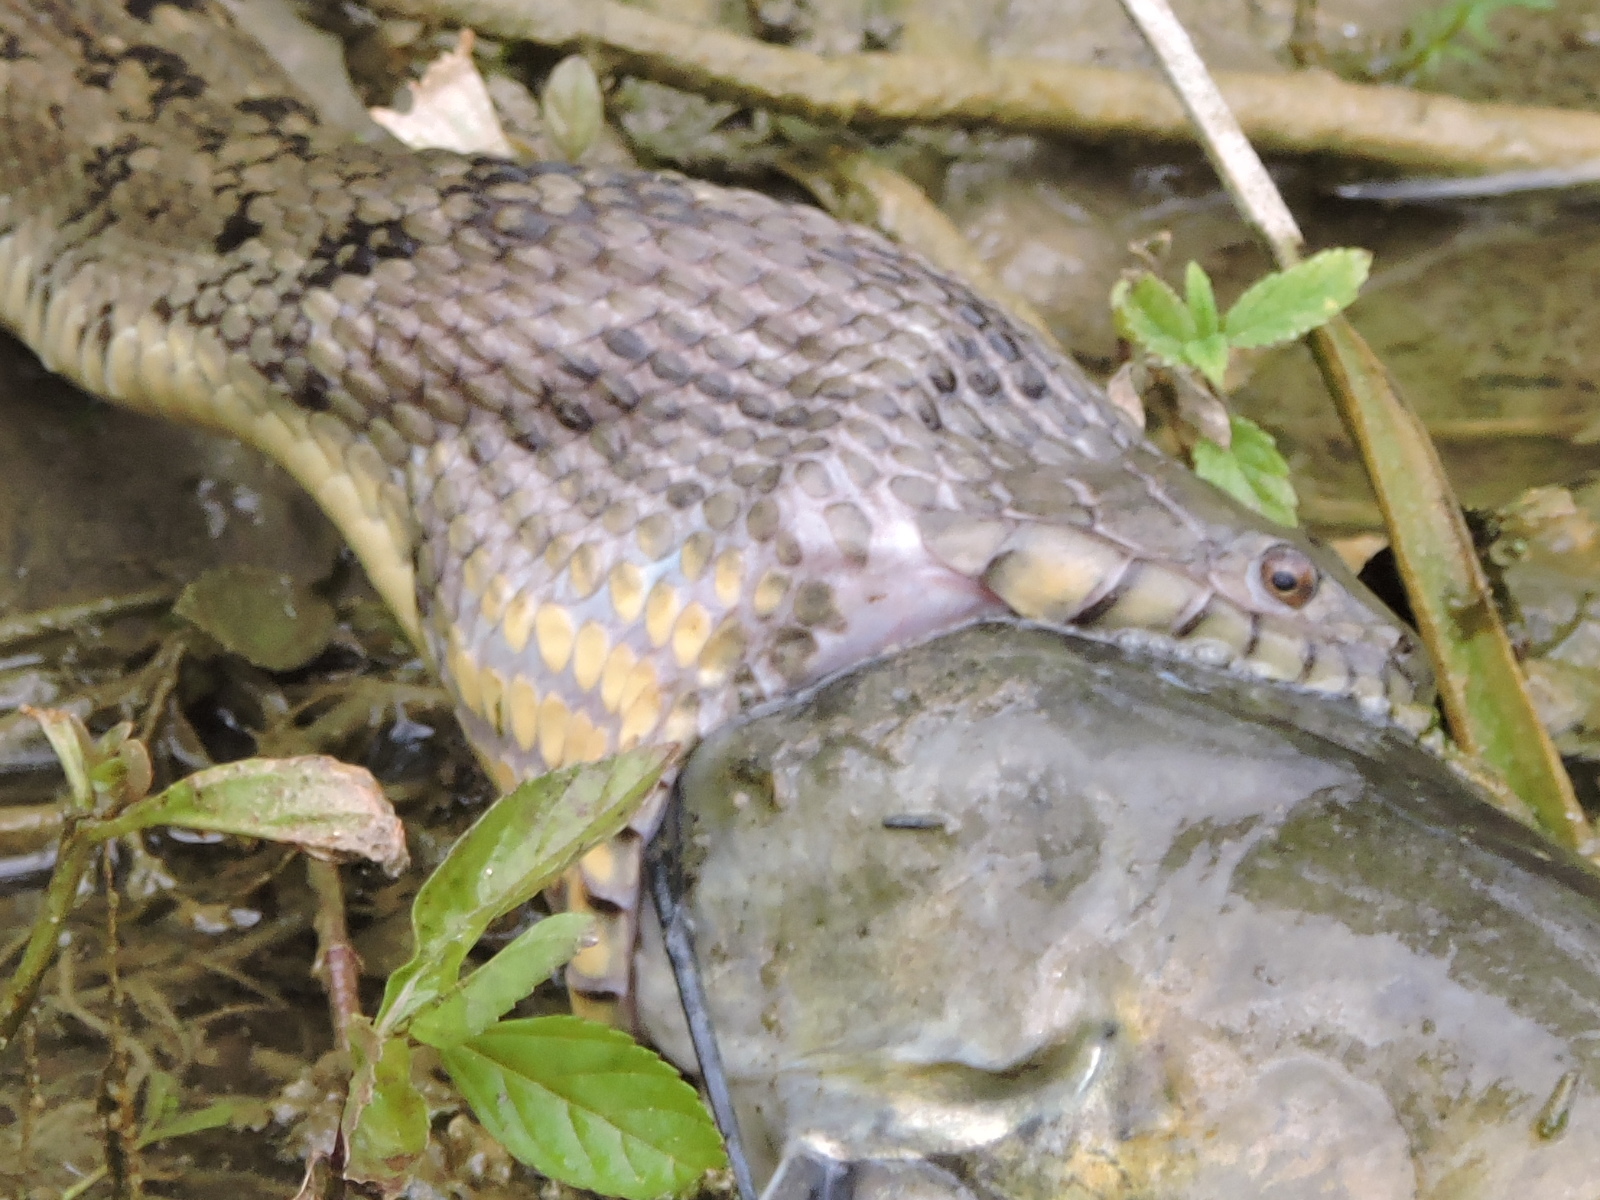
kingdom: Animalia
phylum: Chordata
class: Squamata
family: Colubridae
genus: Nerodia
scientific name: Nerodia rhombifer
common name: Diamondback water snake
